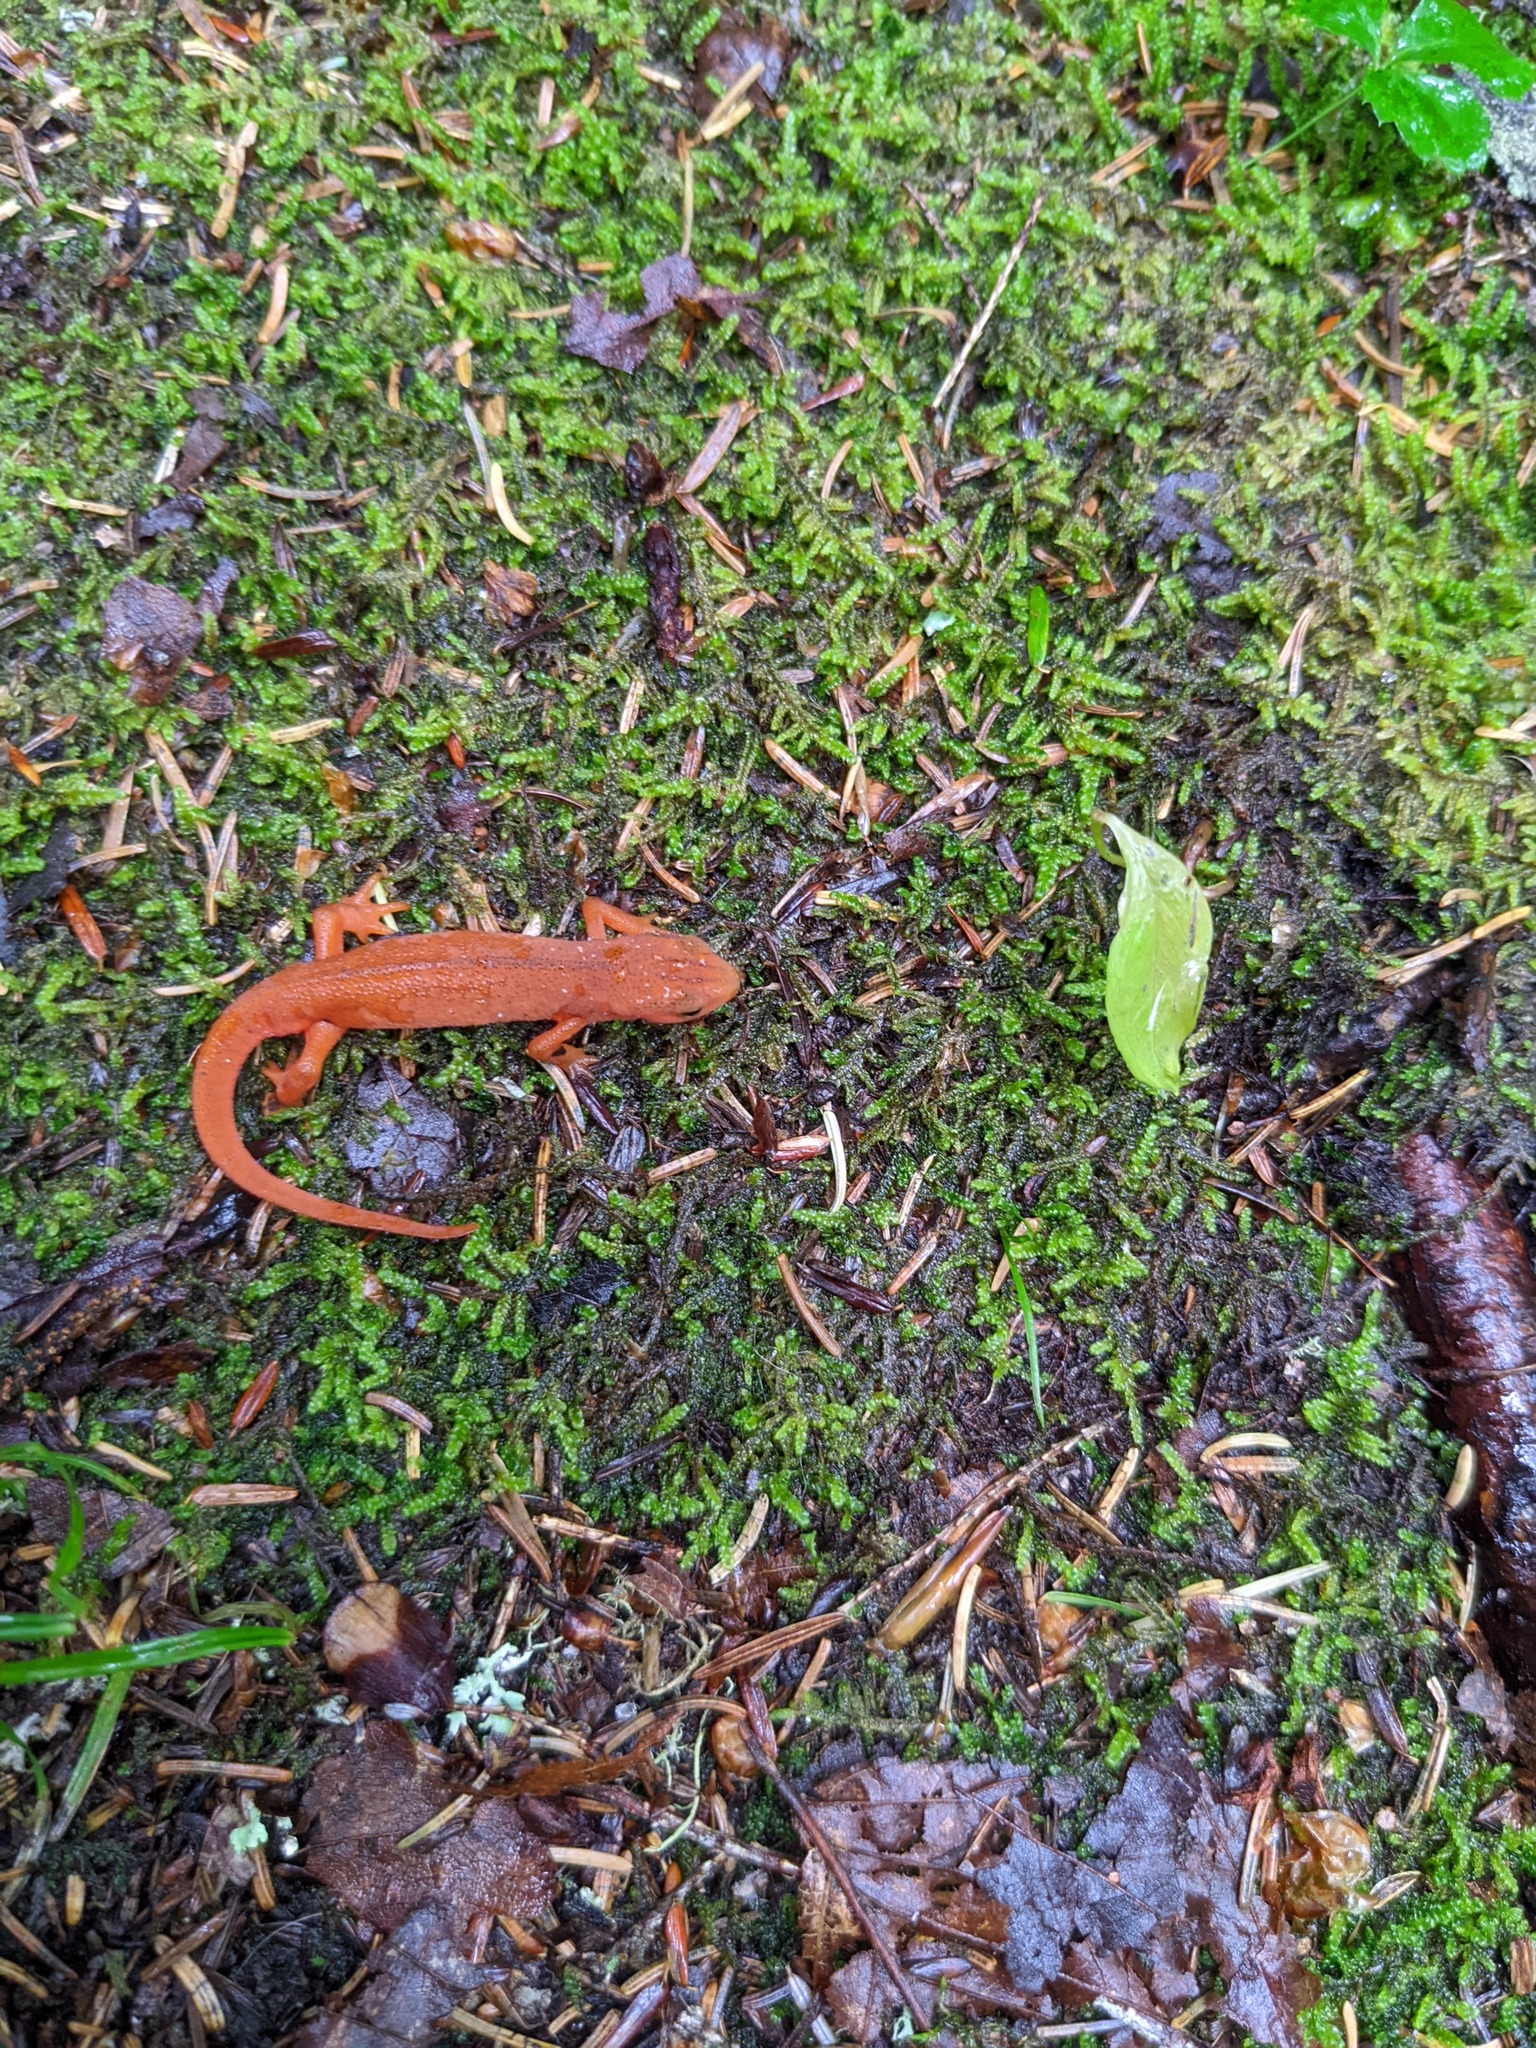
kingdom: Animalia
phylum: Chordata
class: Amphibia
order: Caudata
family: Salamandridae
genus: Notophthalmus
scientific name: Notophthalmus viridescens
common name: Eastern newt
